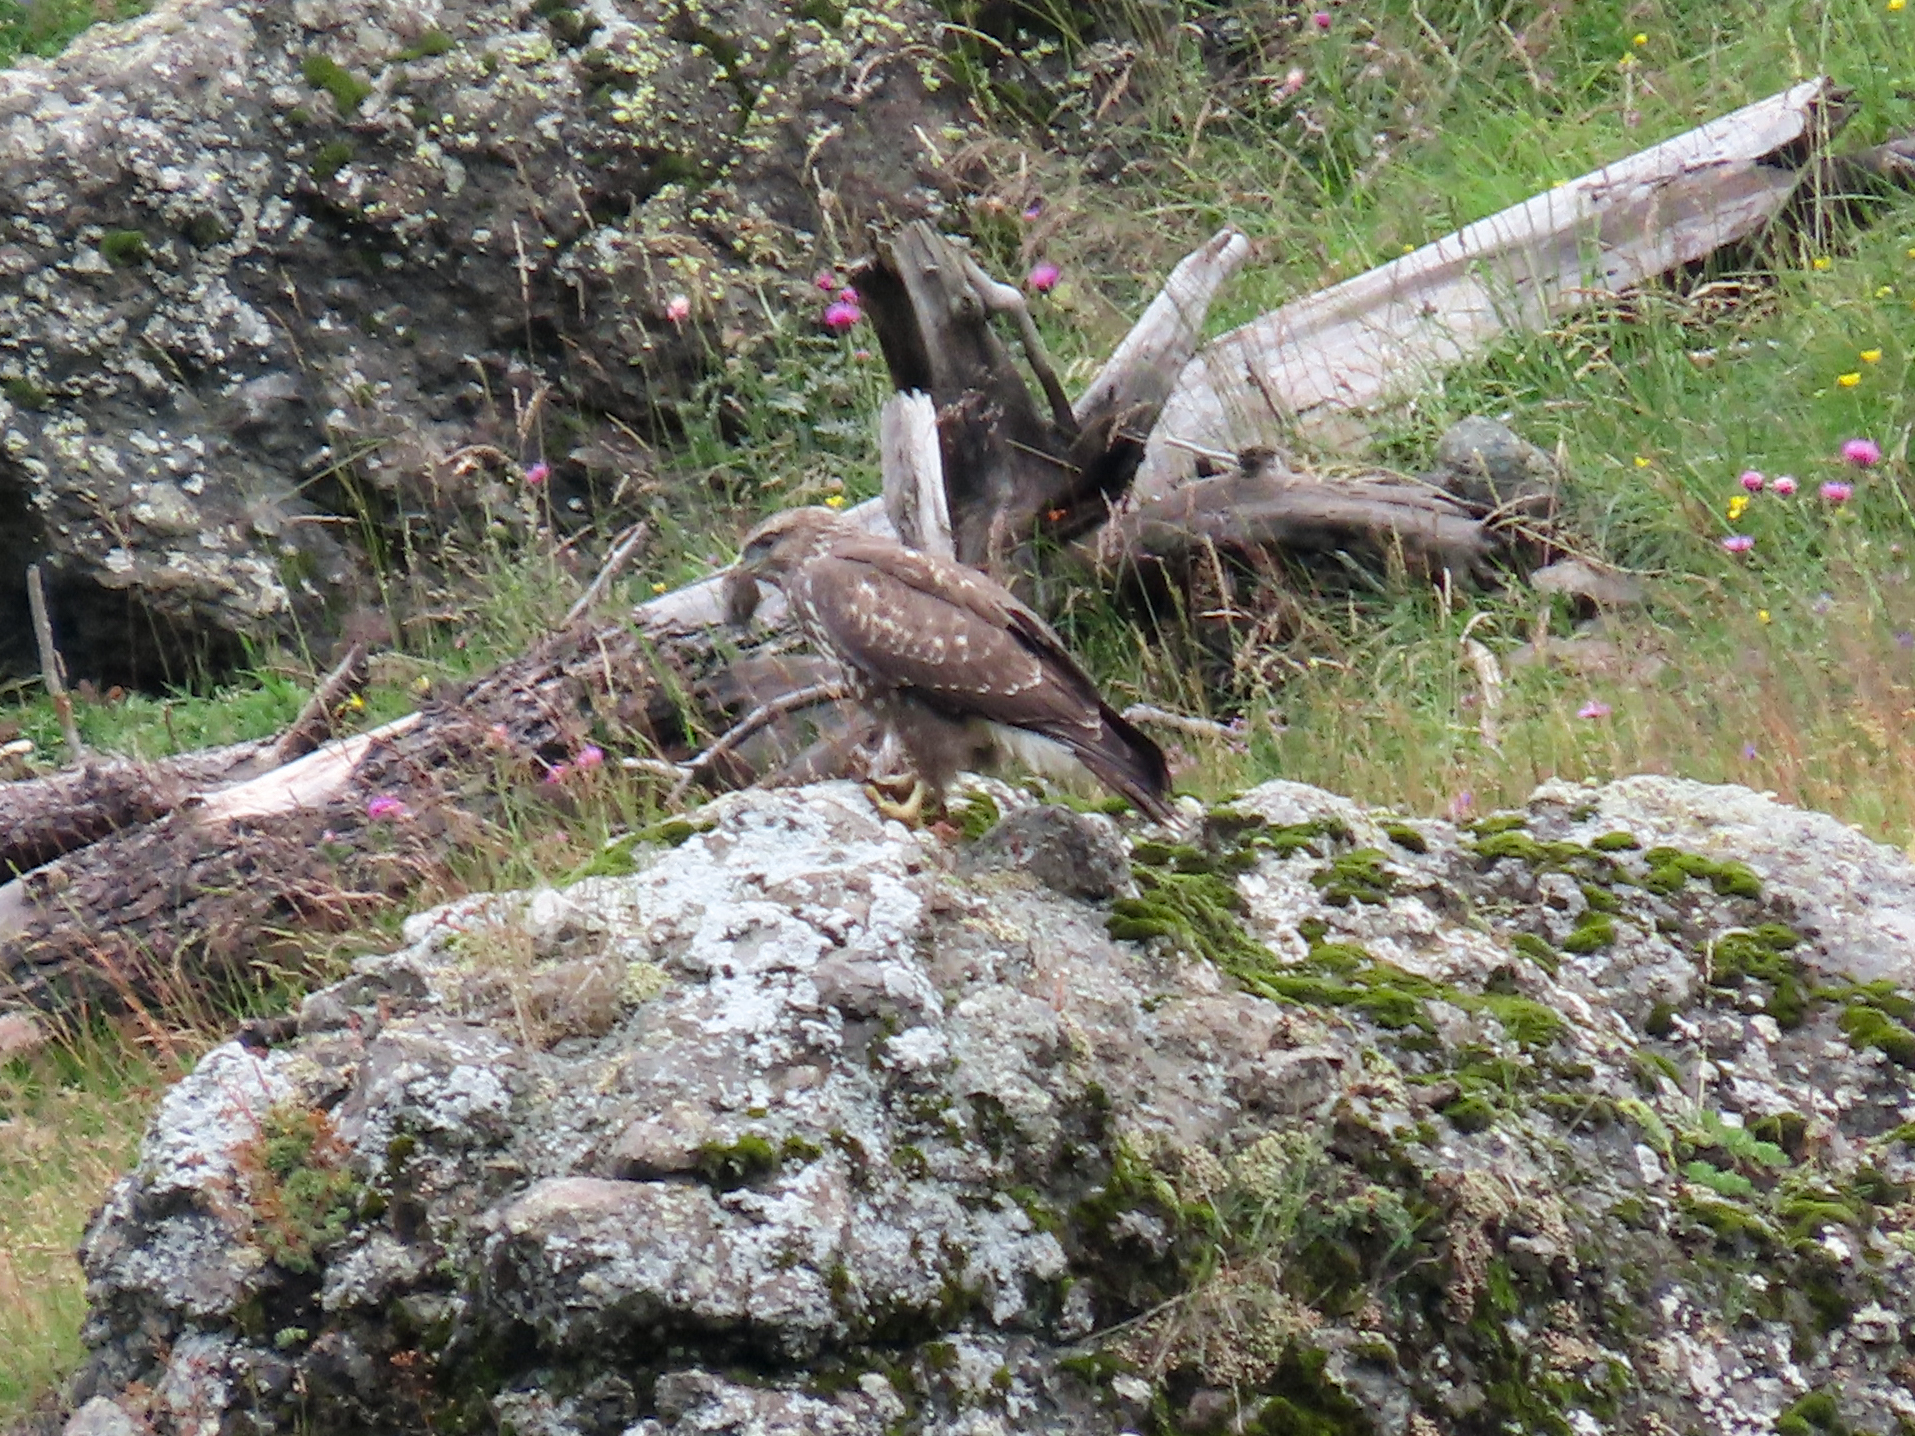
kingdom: Animalia
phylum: Chordata
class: Aves
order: Accipitriformes
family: Accipitridae
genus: Buteo
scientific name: Buteo buteo
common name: Common buzzard
